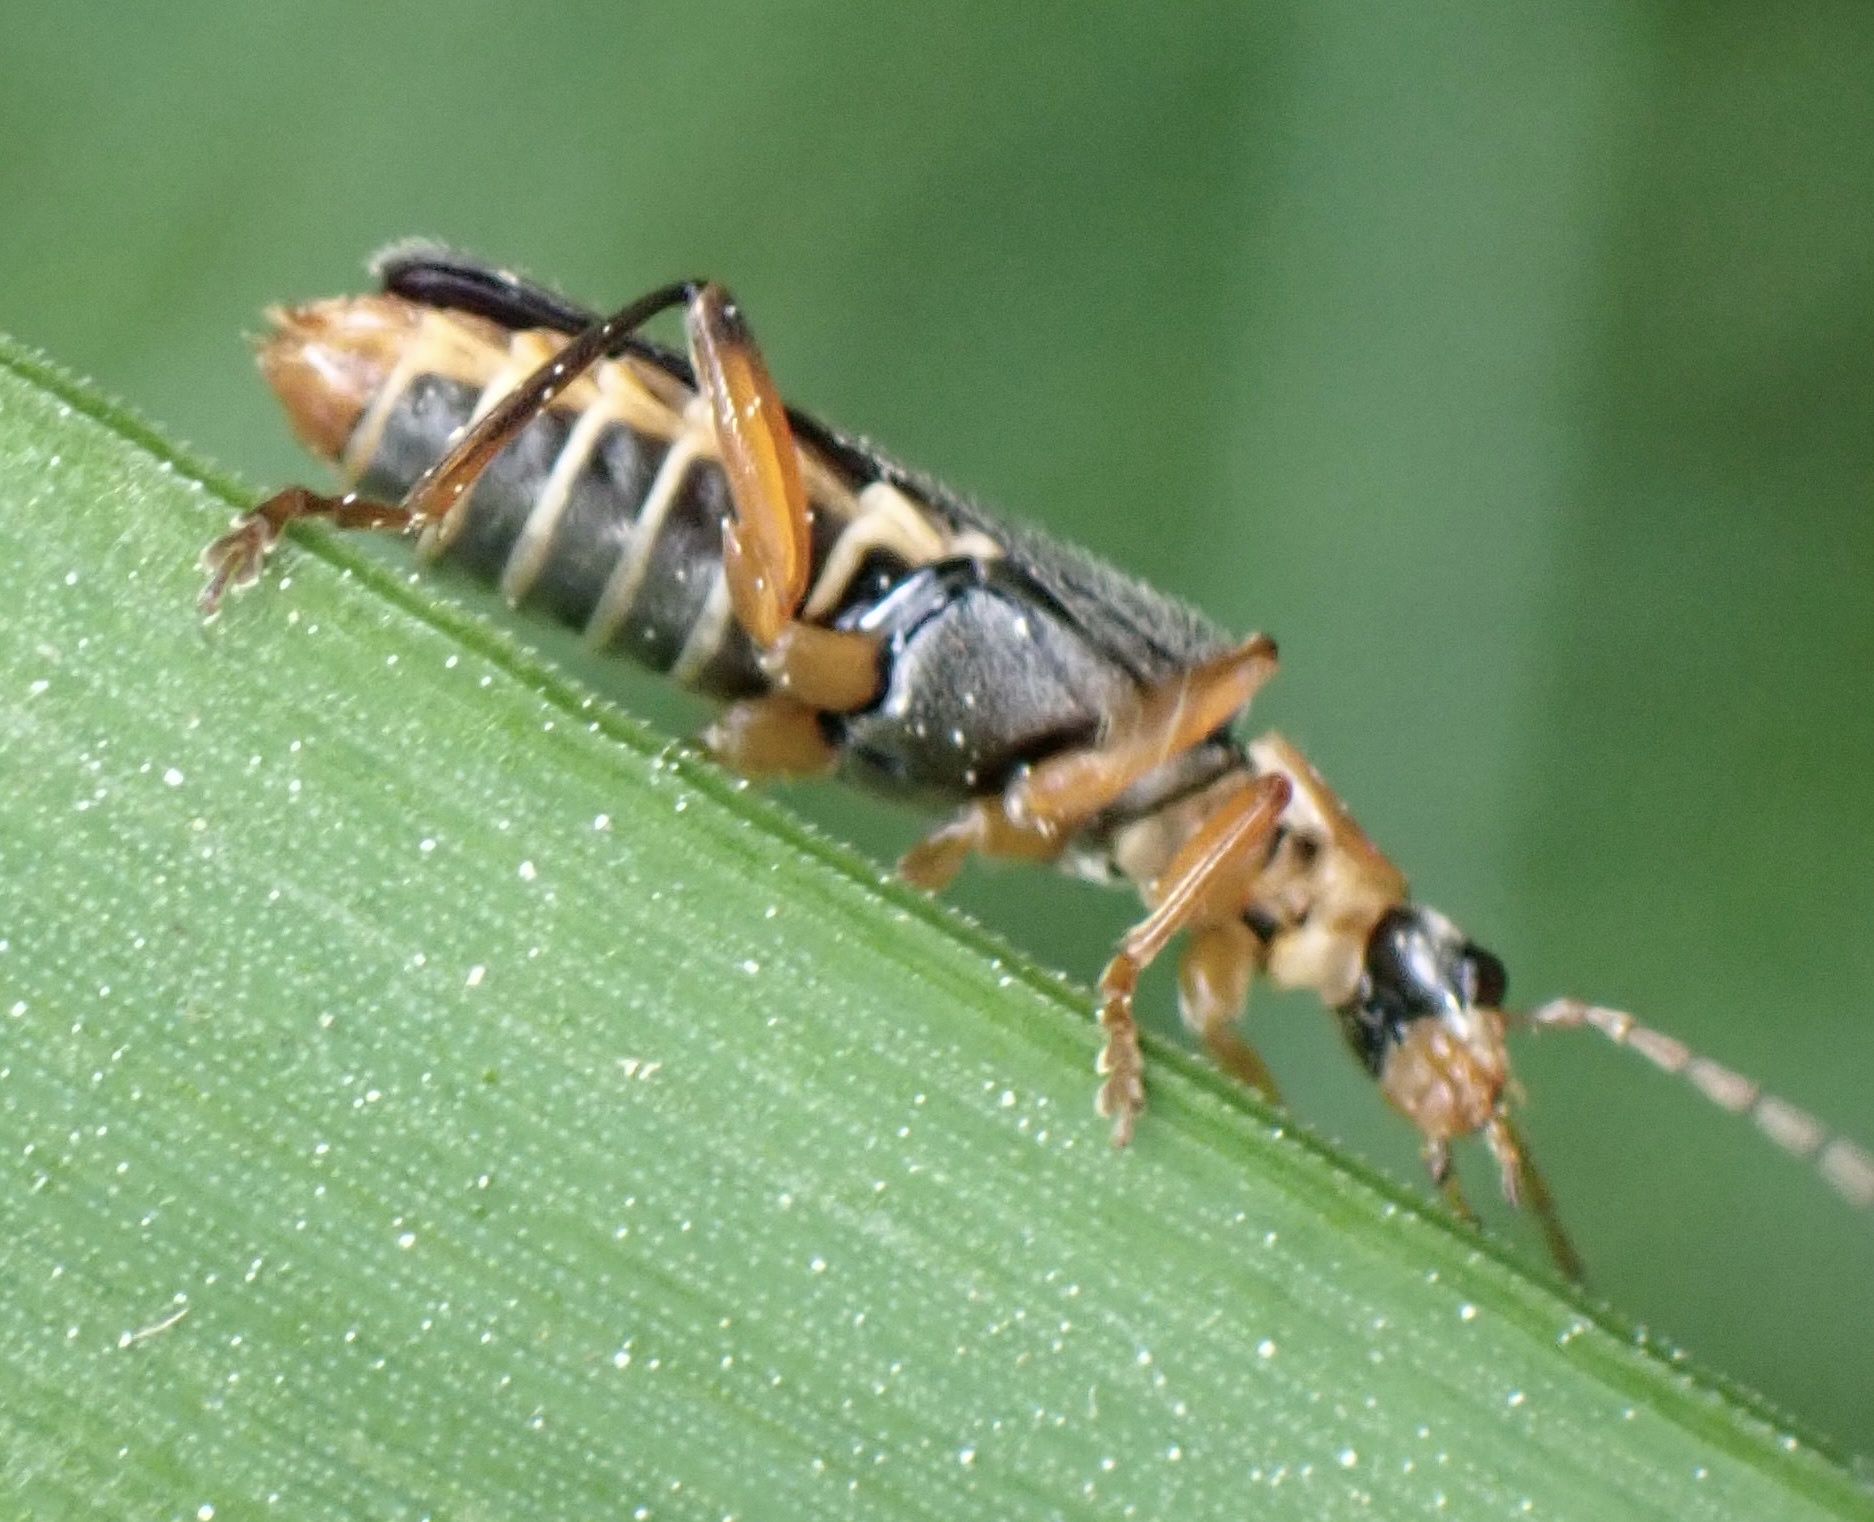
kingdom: Animalia
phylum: Arthropoda
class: Insecta
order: Coleoptera
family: Cantharidae
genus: Cantharis
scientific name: Cantharis nigricans
